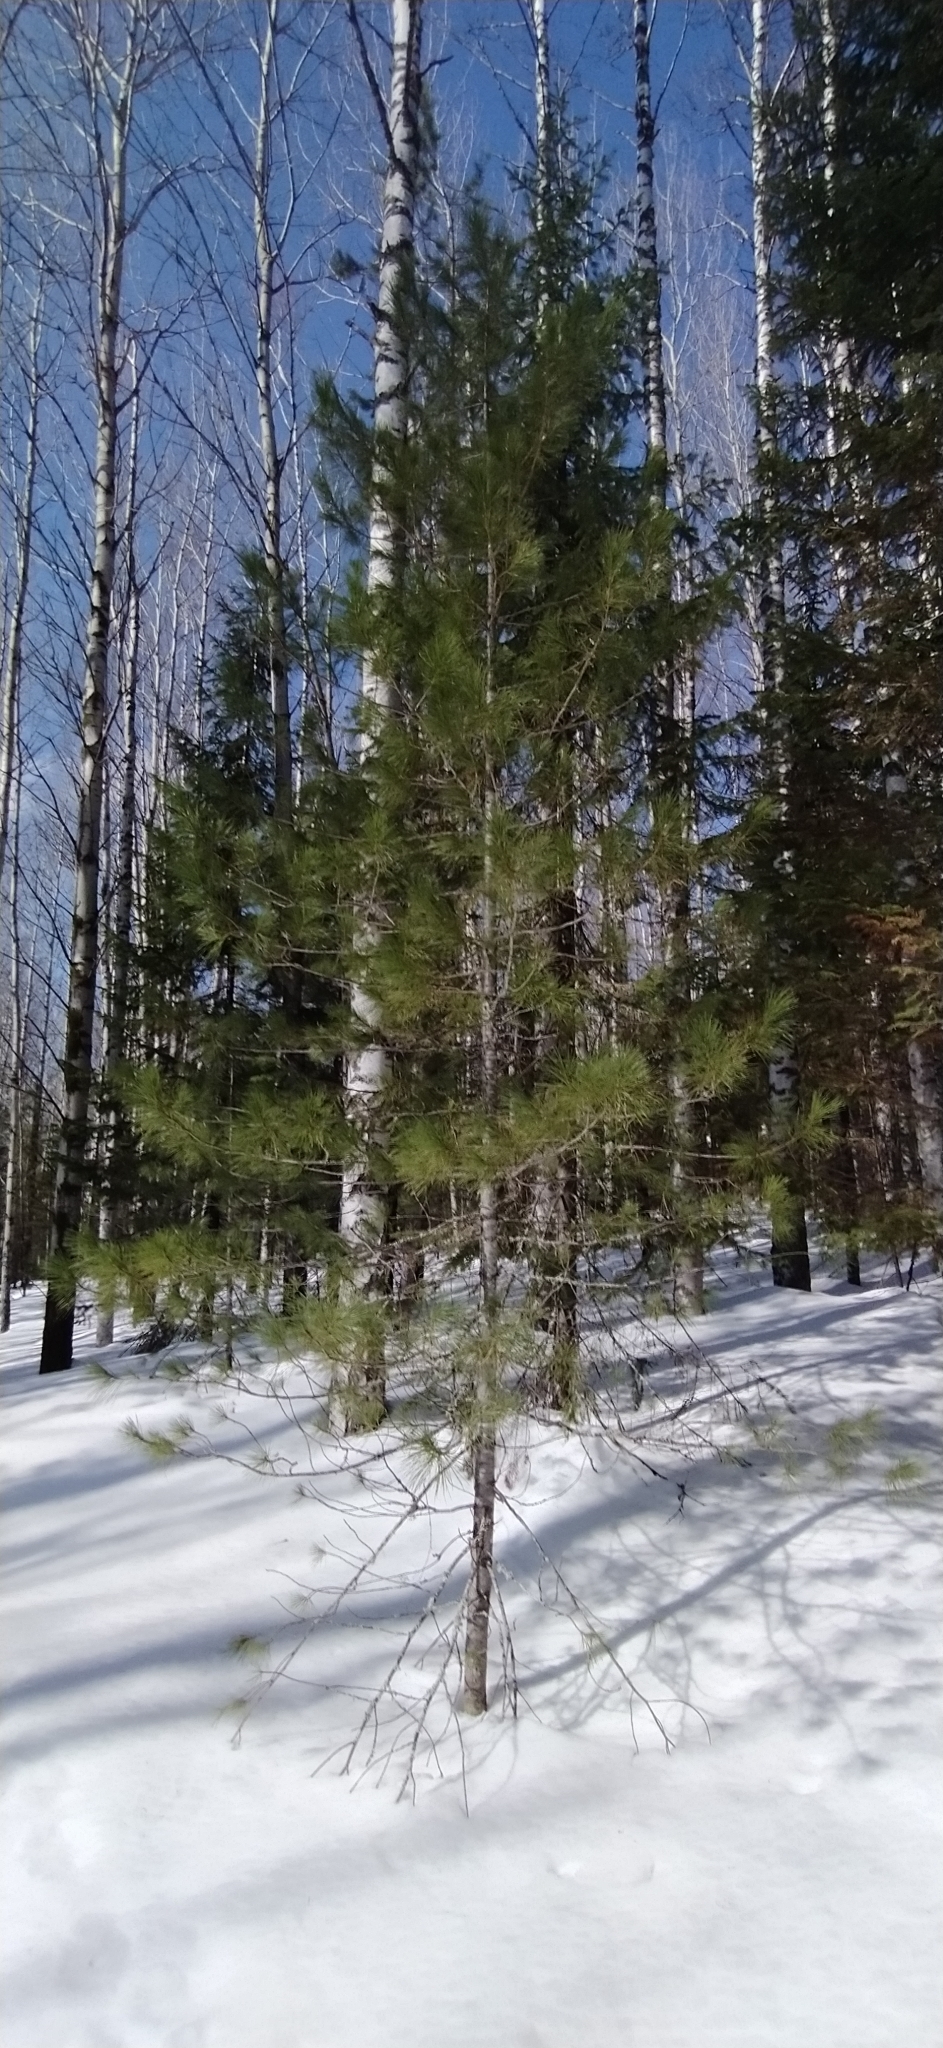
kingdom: Plantae
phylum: Tracheophyta
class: Pinopsida
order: Pinales
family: Pinaceae
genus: Pinus
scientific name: Pinus sibirica
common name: Siberian pine
